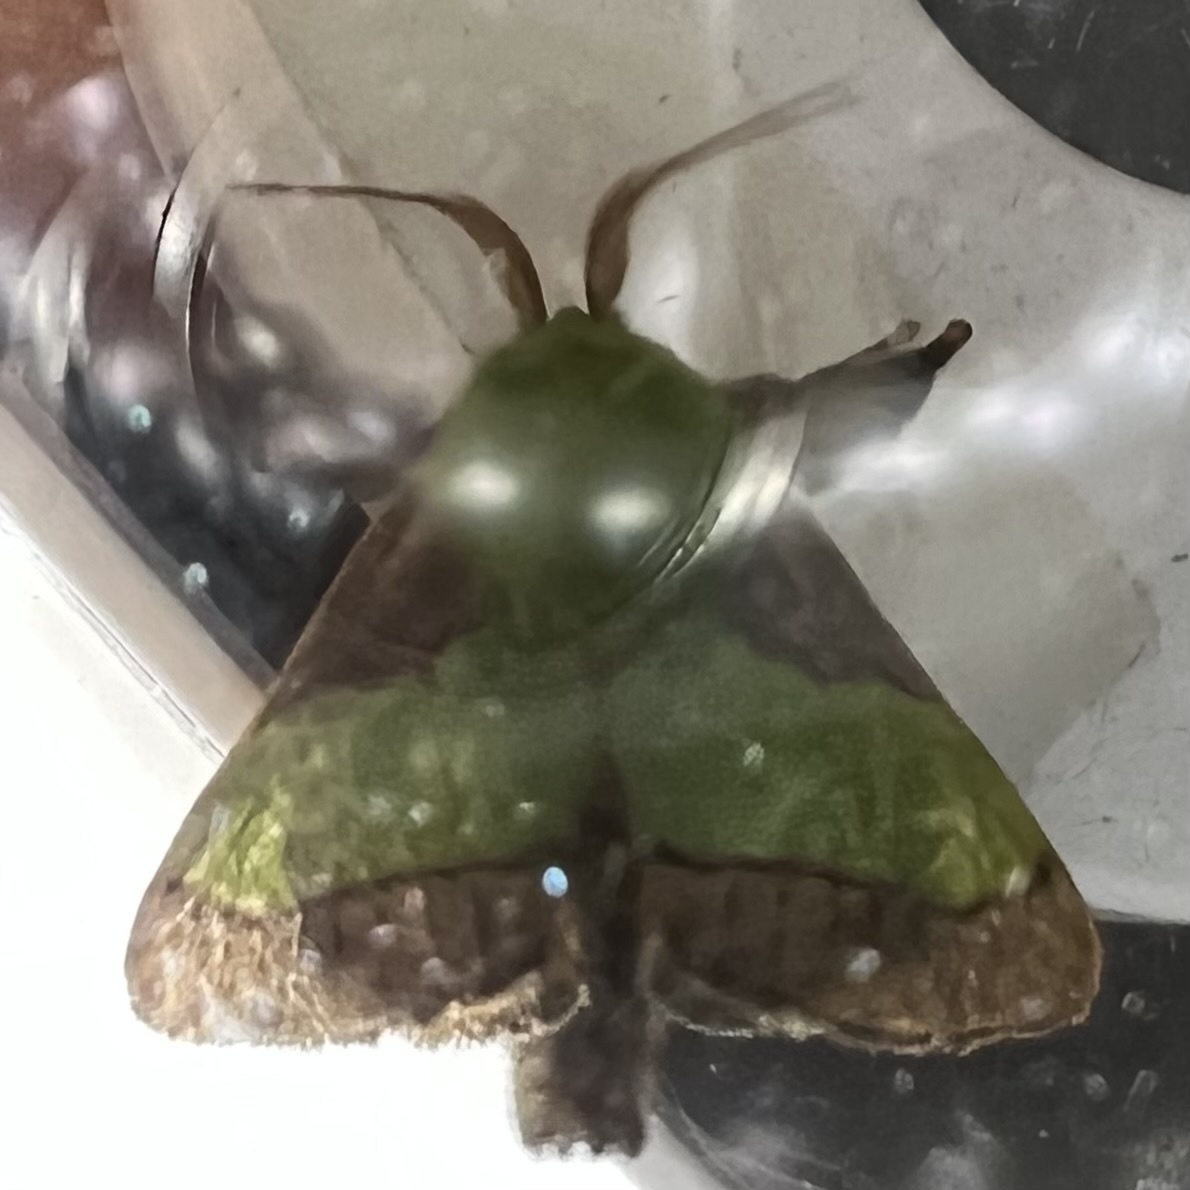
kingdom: Animalia
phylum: Arthropoda
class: Insecta
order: Lepidoptera
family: Limacodidae
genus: Parasa
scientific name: Parasa chloris
